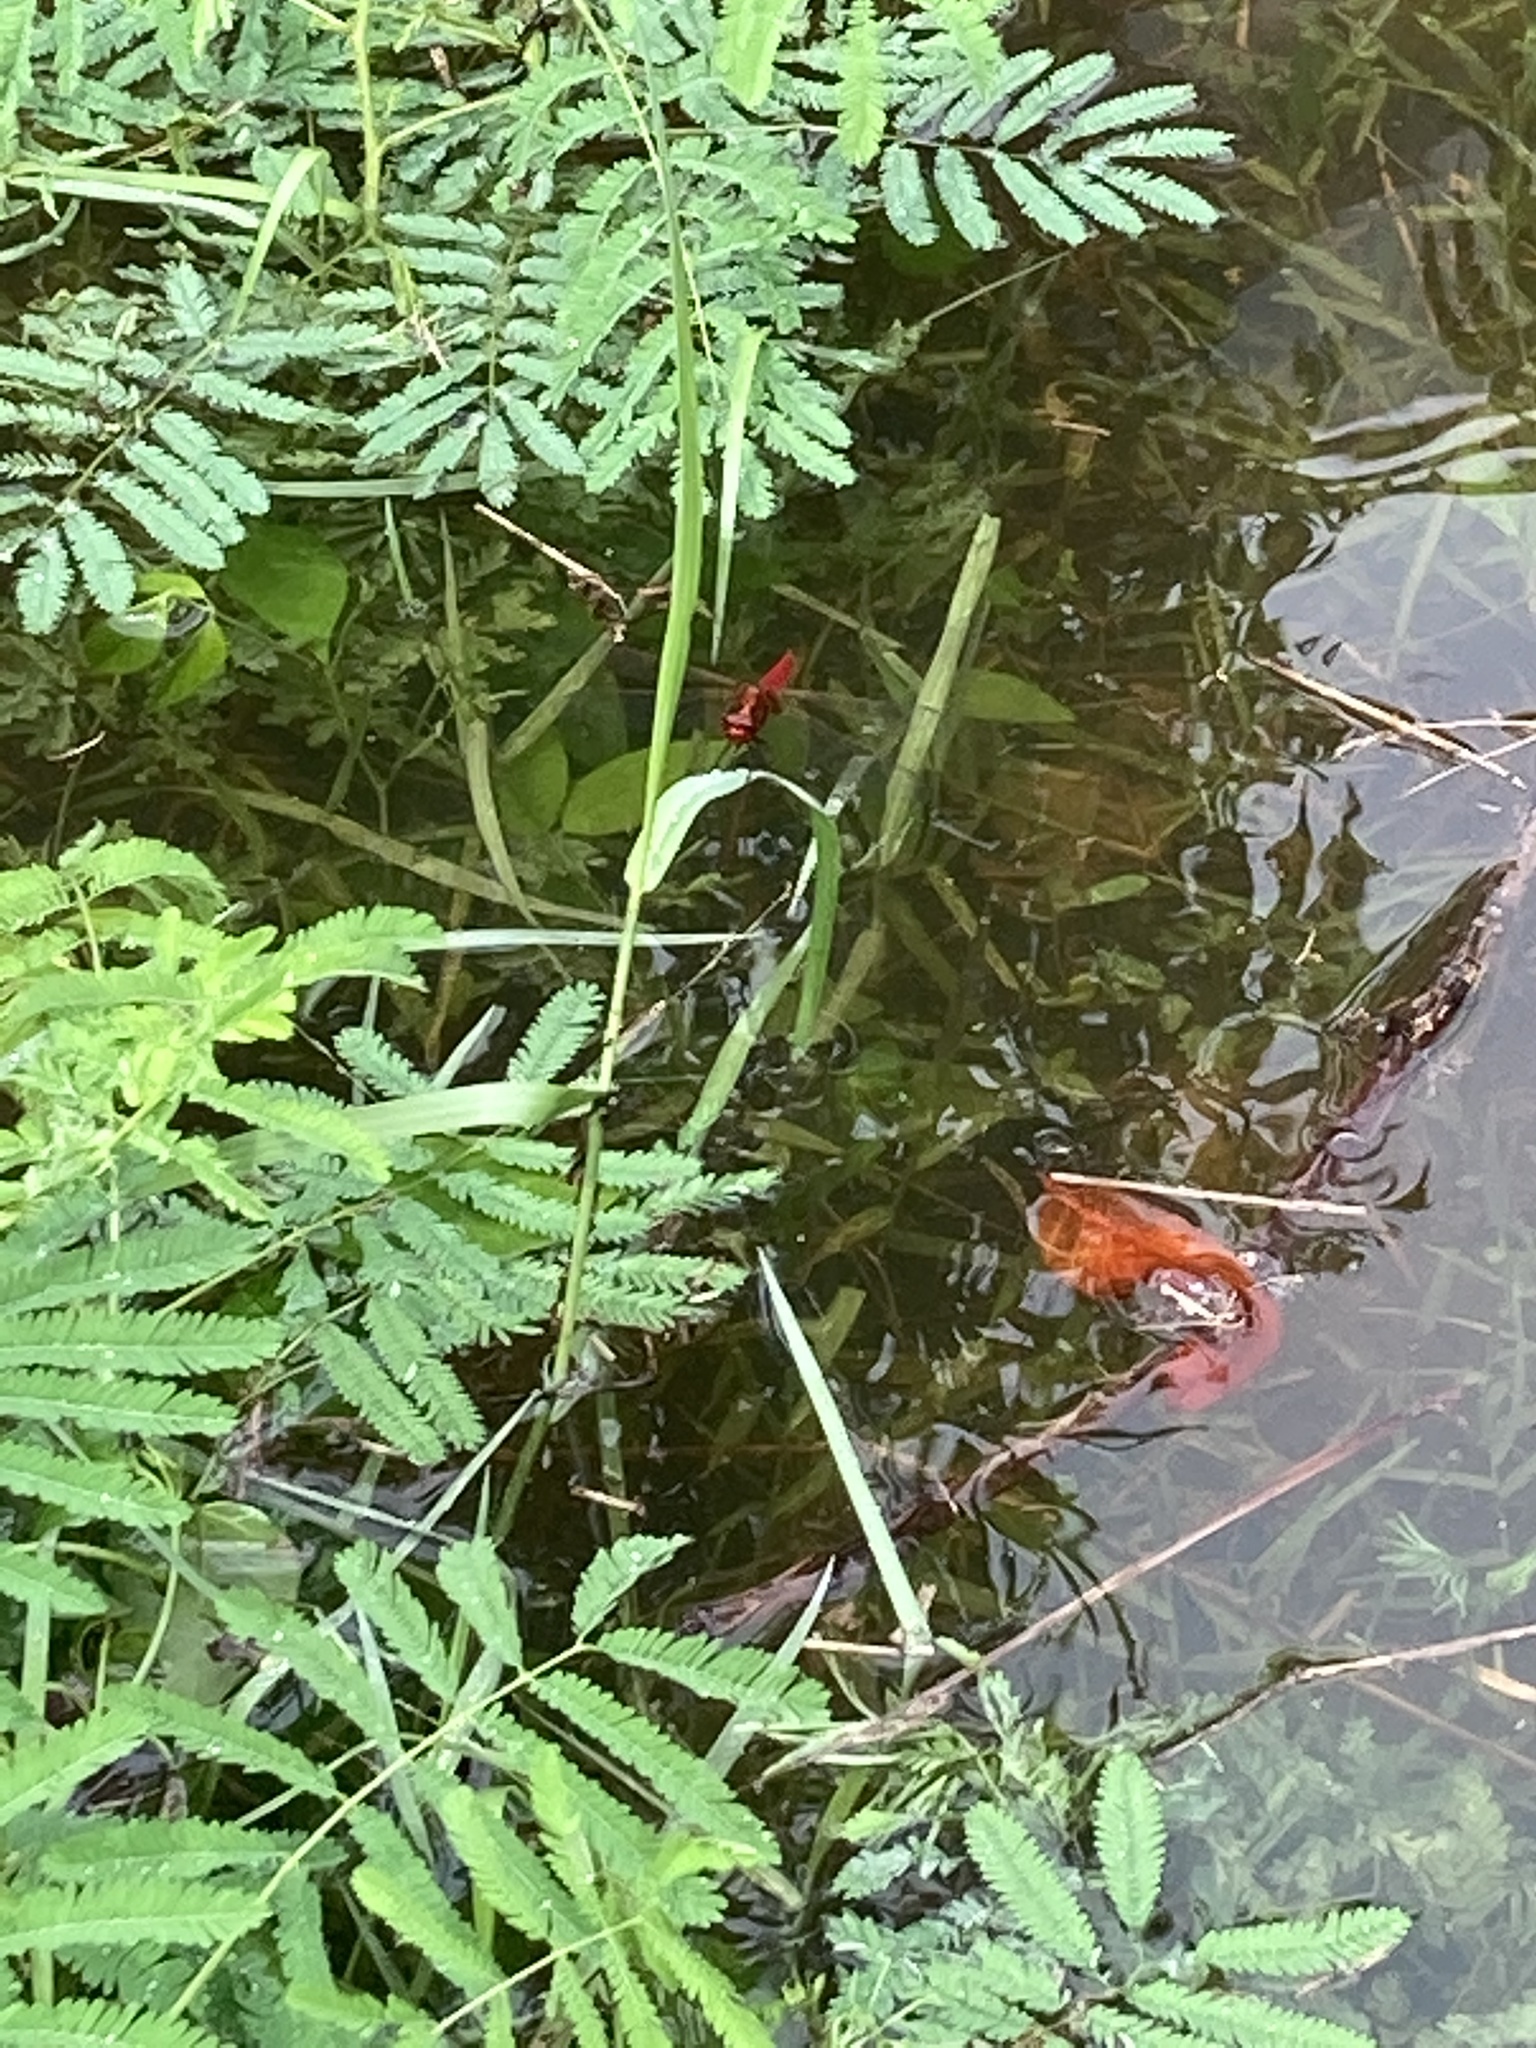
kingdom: Animalia
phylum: Arthropoda
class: Insecta
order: Odonata
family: Libellulidae
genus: Crocothemis
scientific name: Crocothemis servilia
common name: Scarlet skimmer
